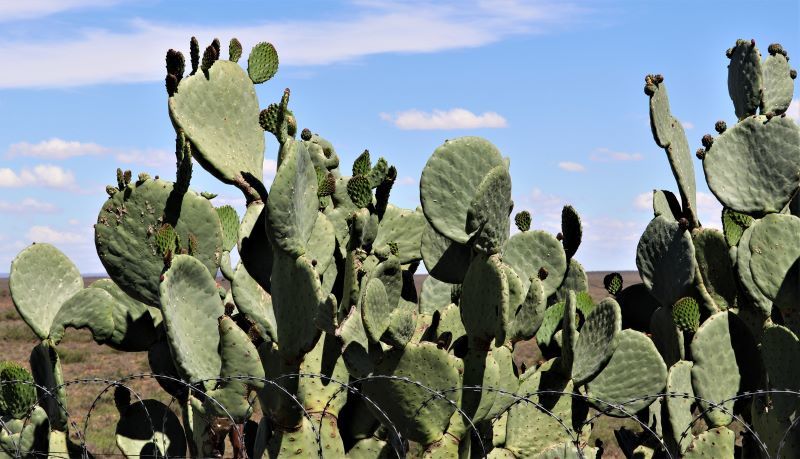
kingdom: Plantae
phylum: Tracheophyta
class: Magnoliopsida
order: Caryophyllales
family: Cactaceae
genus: Opuntia
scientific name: Opuntia ficus-indica
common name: Barbary fig
